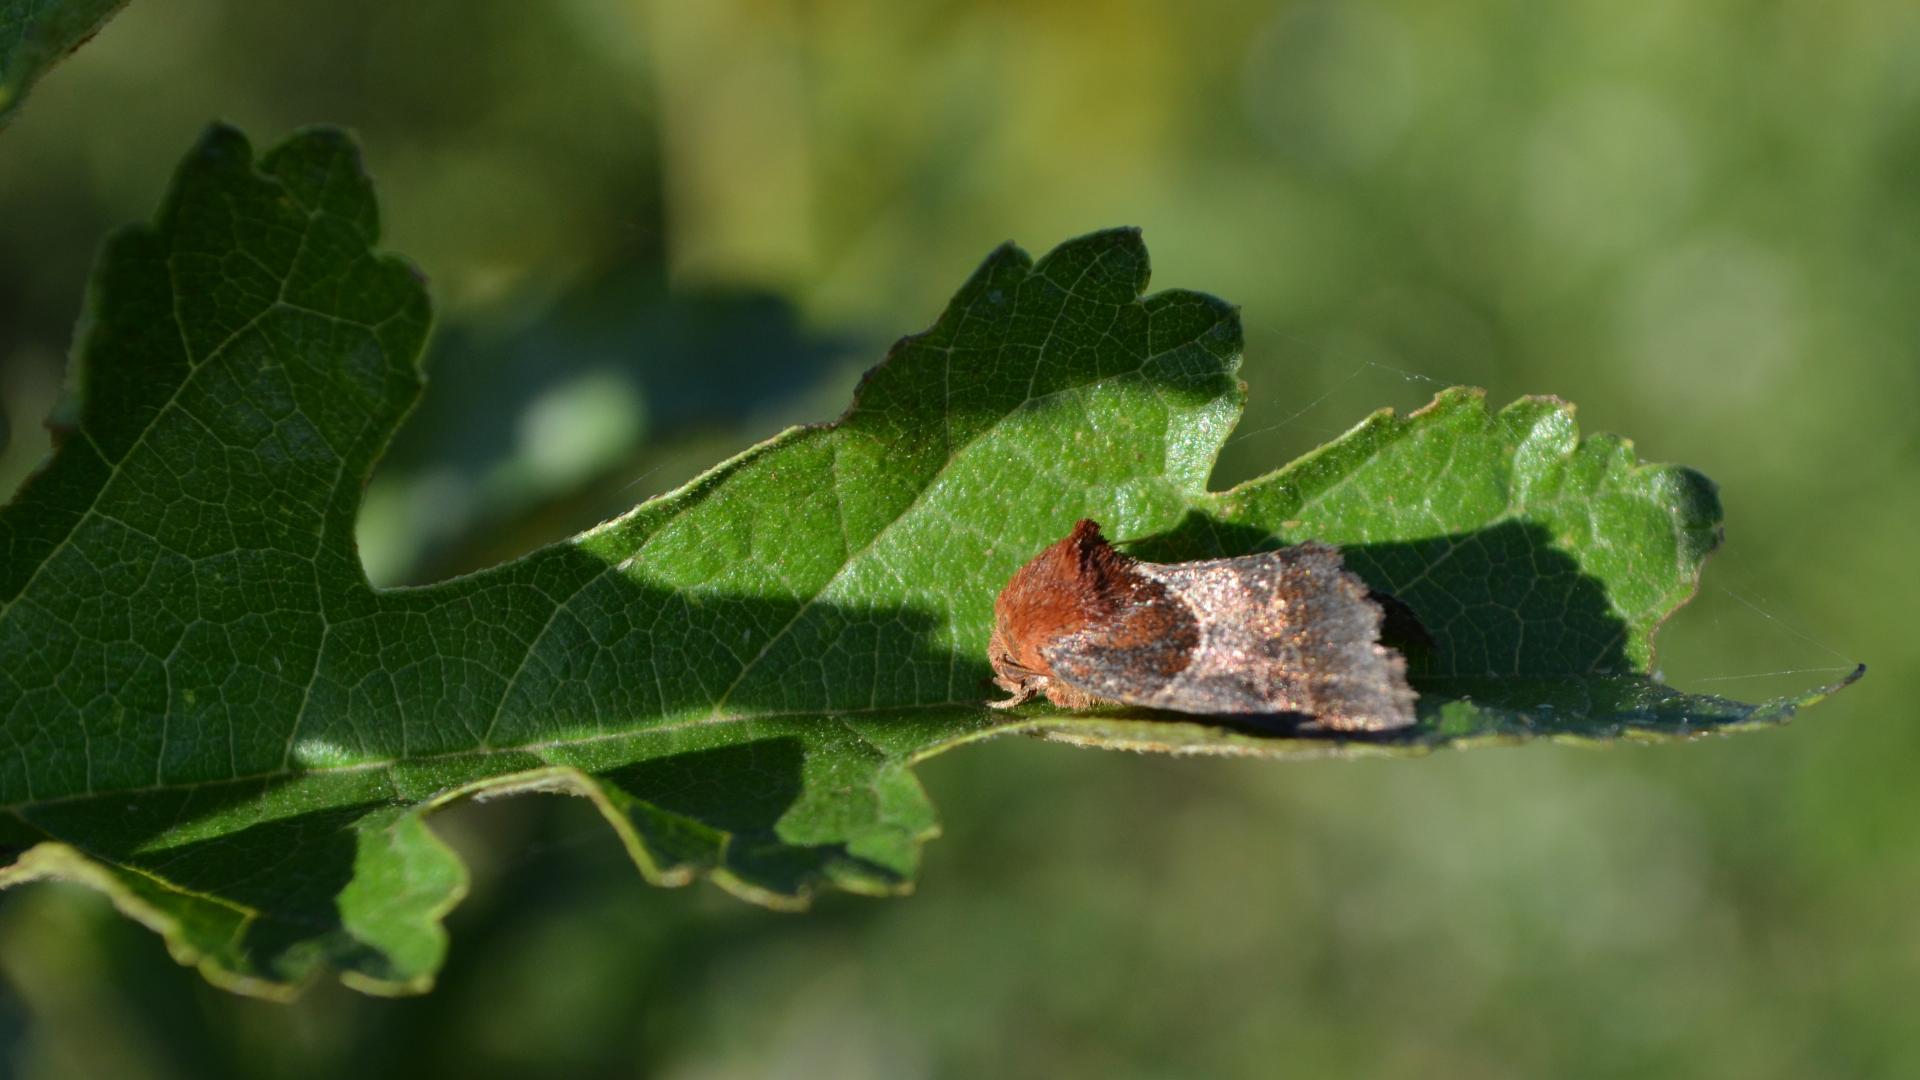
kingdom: Animalia
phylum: Arthropoda
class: Insecta
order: Lepidoptera
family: Noctuidae
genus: Schinia
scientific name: Schinia arcigera
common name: Arcigera flower moth
